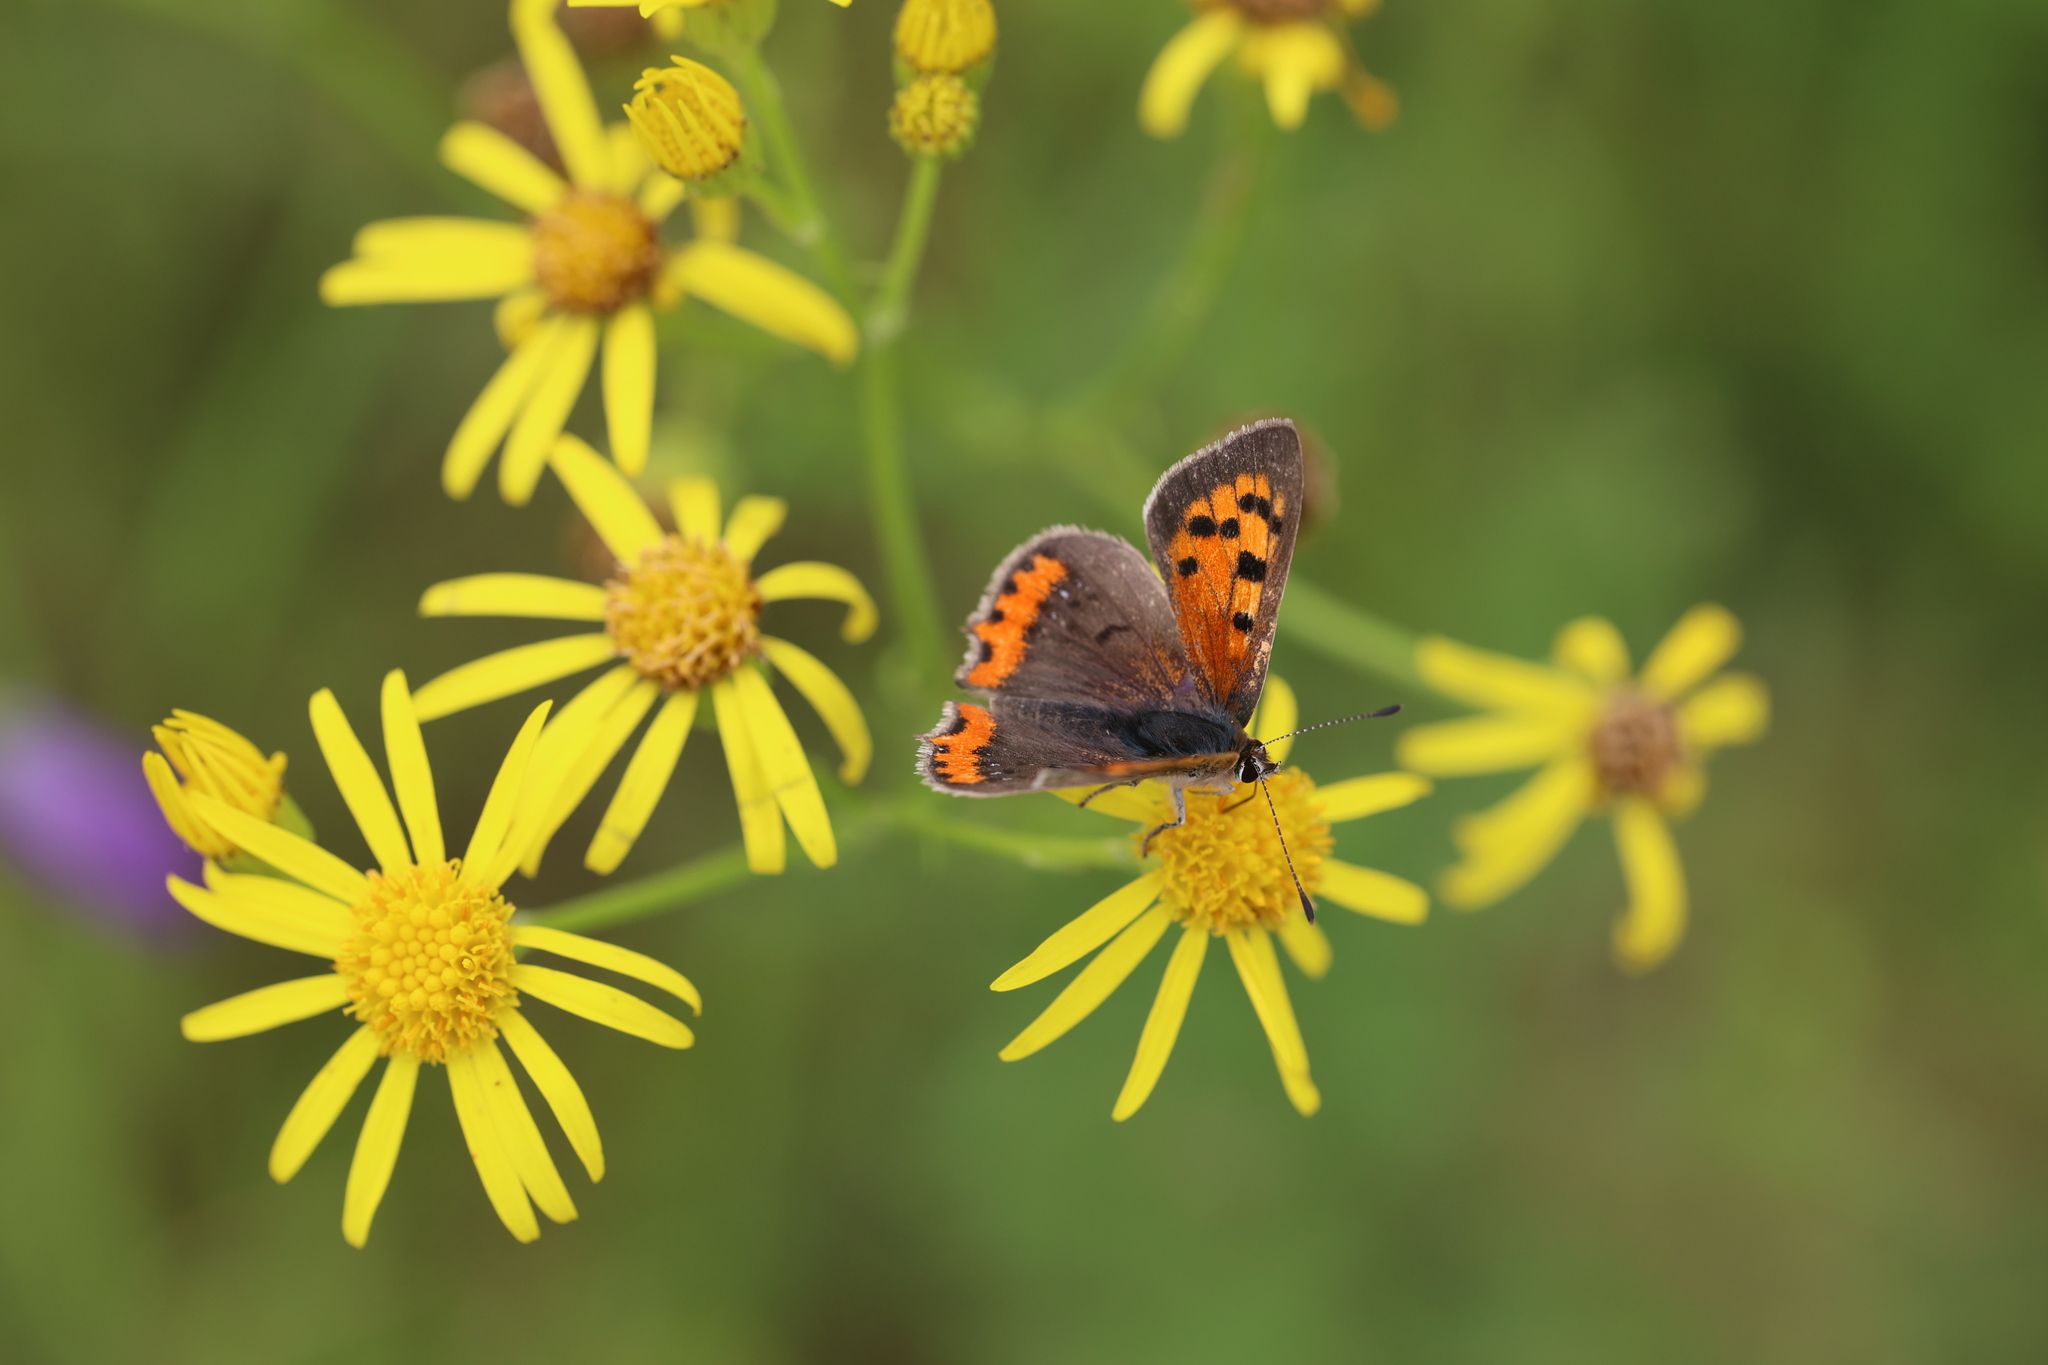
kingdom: Animalia
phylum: Arthropoda
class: Insecta
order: Lepidoptera
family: Lycaenidae
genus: Lycaena
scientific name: Lycaena phlaeas
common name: Small copper
